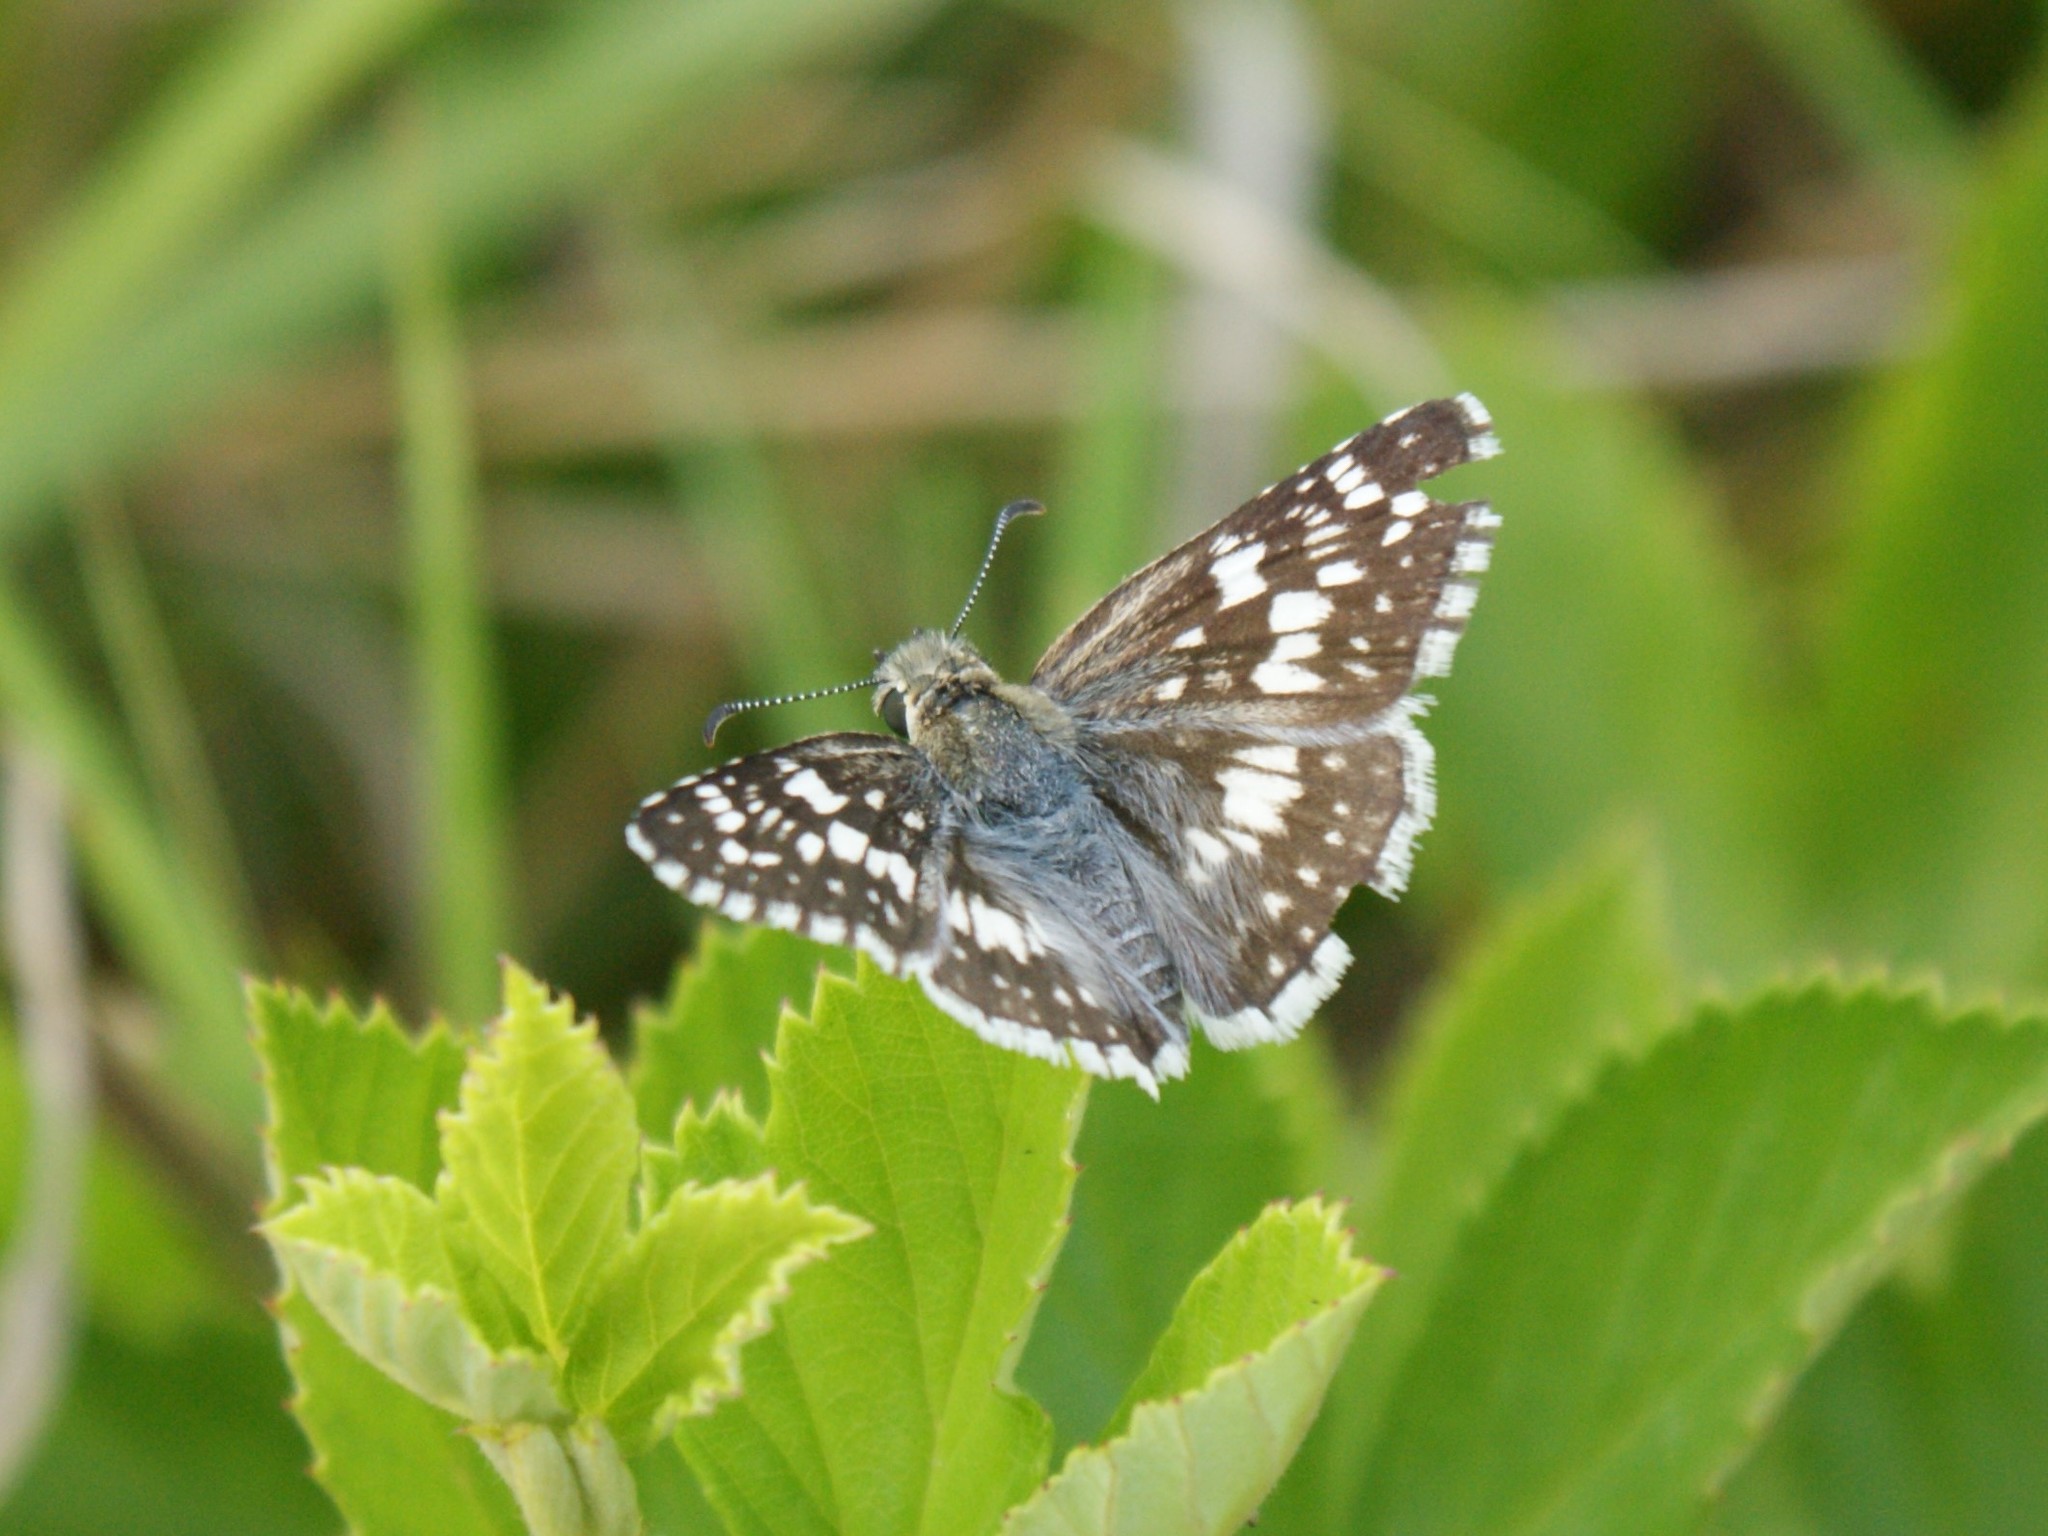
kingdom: Animalia
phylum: Arthropoda
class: Insecta
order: Lepidoptera
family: Hesperiidae
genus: Burnsius
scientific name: Burnsius communis
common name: Common checkered-skipper
